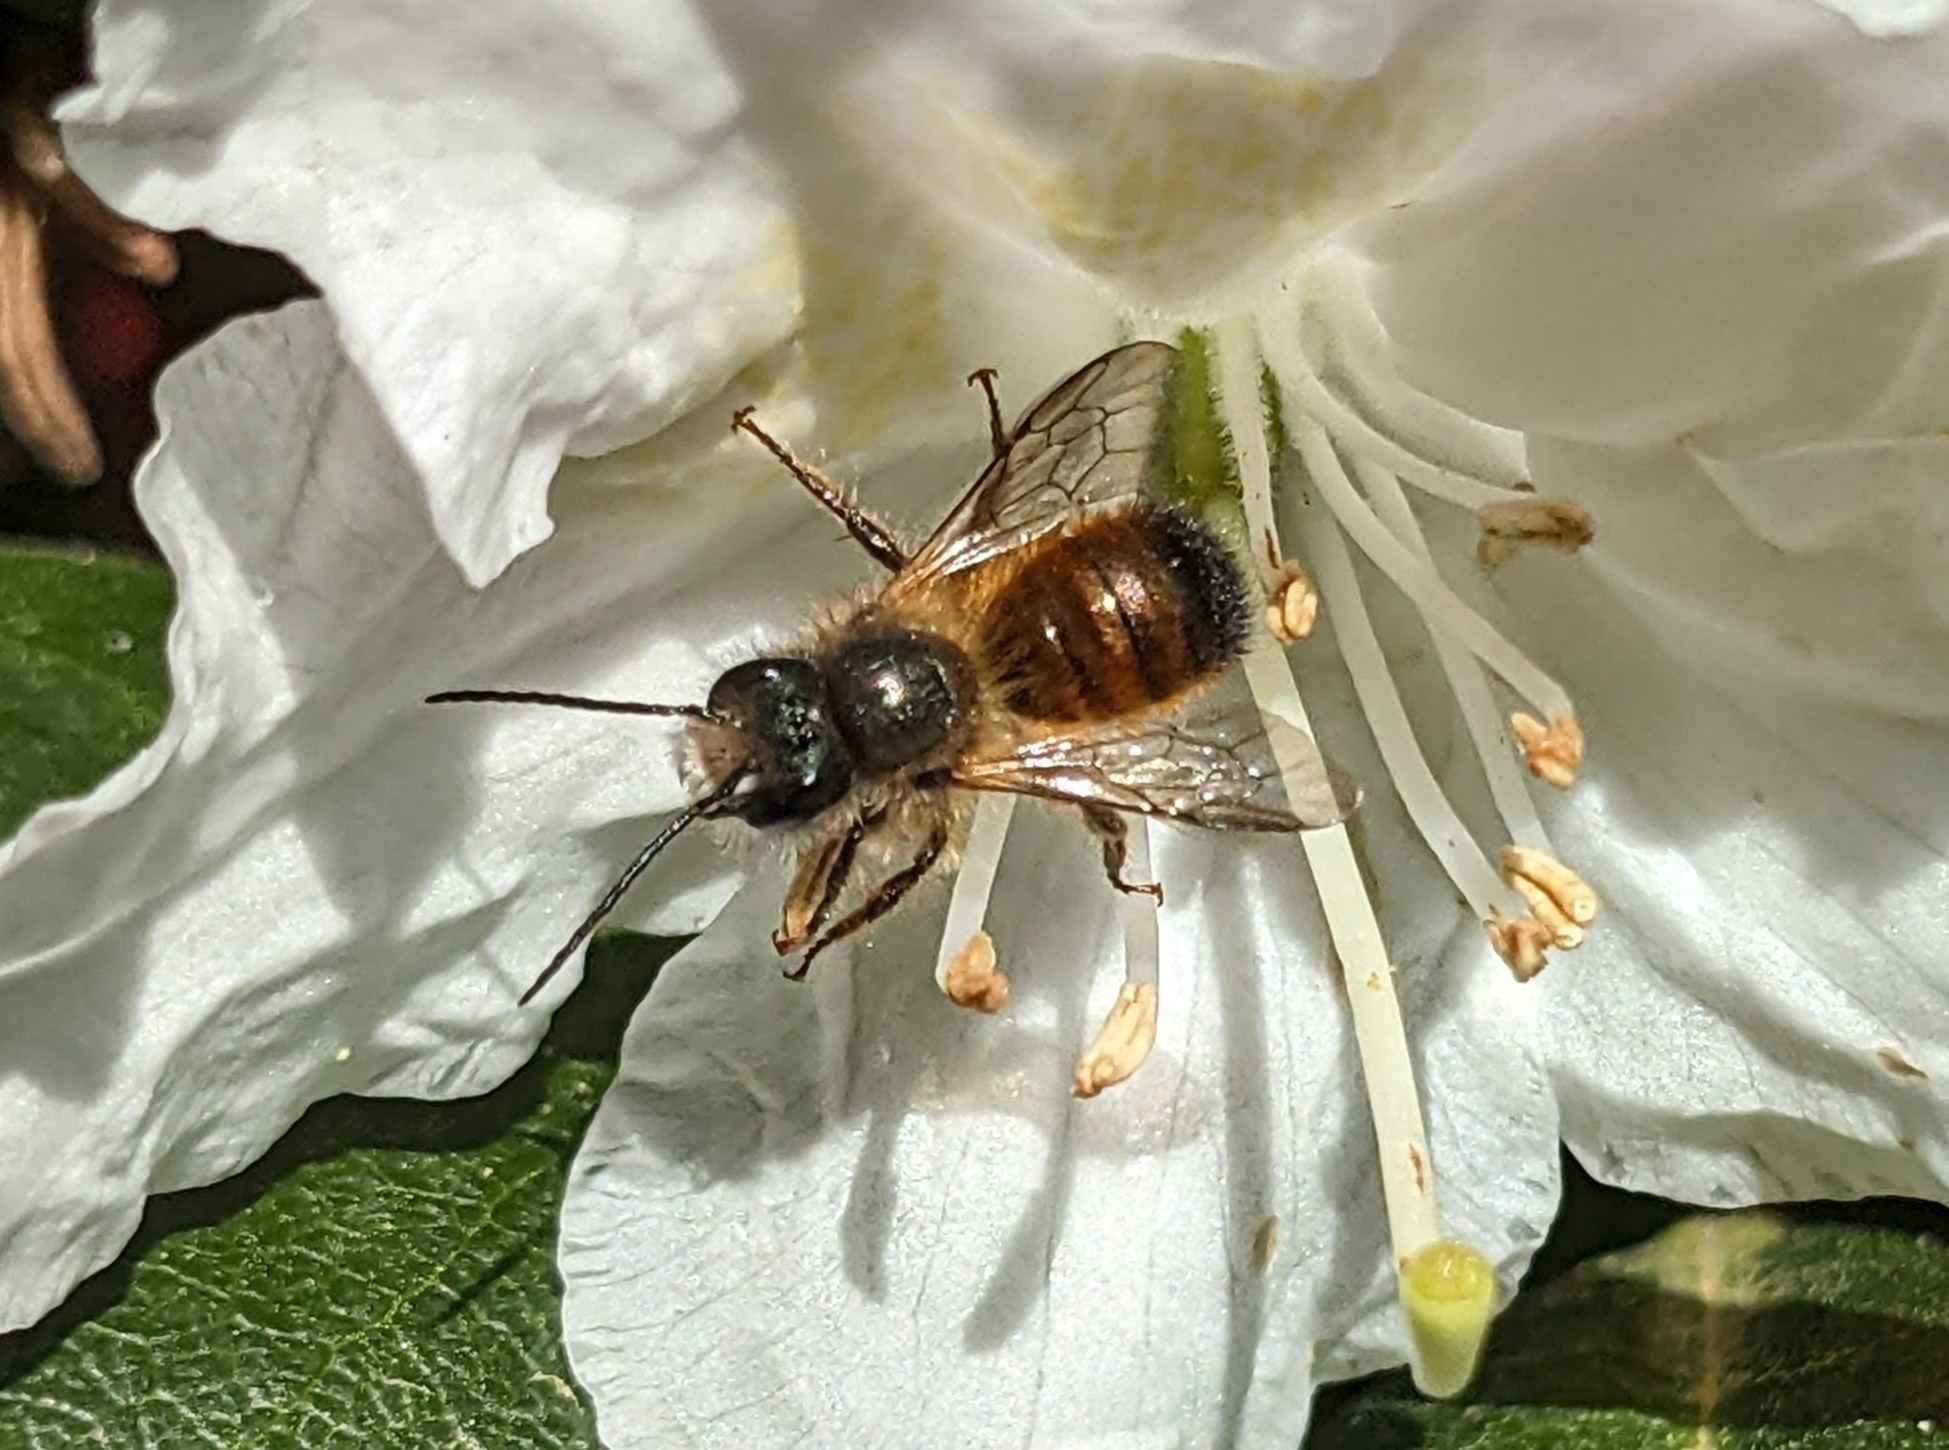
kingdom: Animalia
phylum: Arthropoda
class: Insecta
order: Hymenoptera
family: Megachilidae
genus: Osmia
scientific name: Osmia bicornis
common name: Red mason bee
